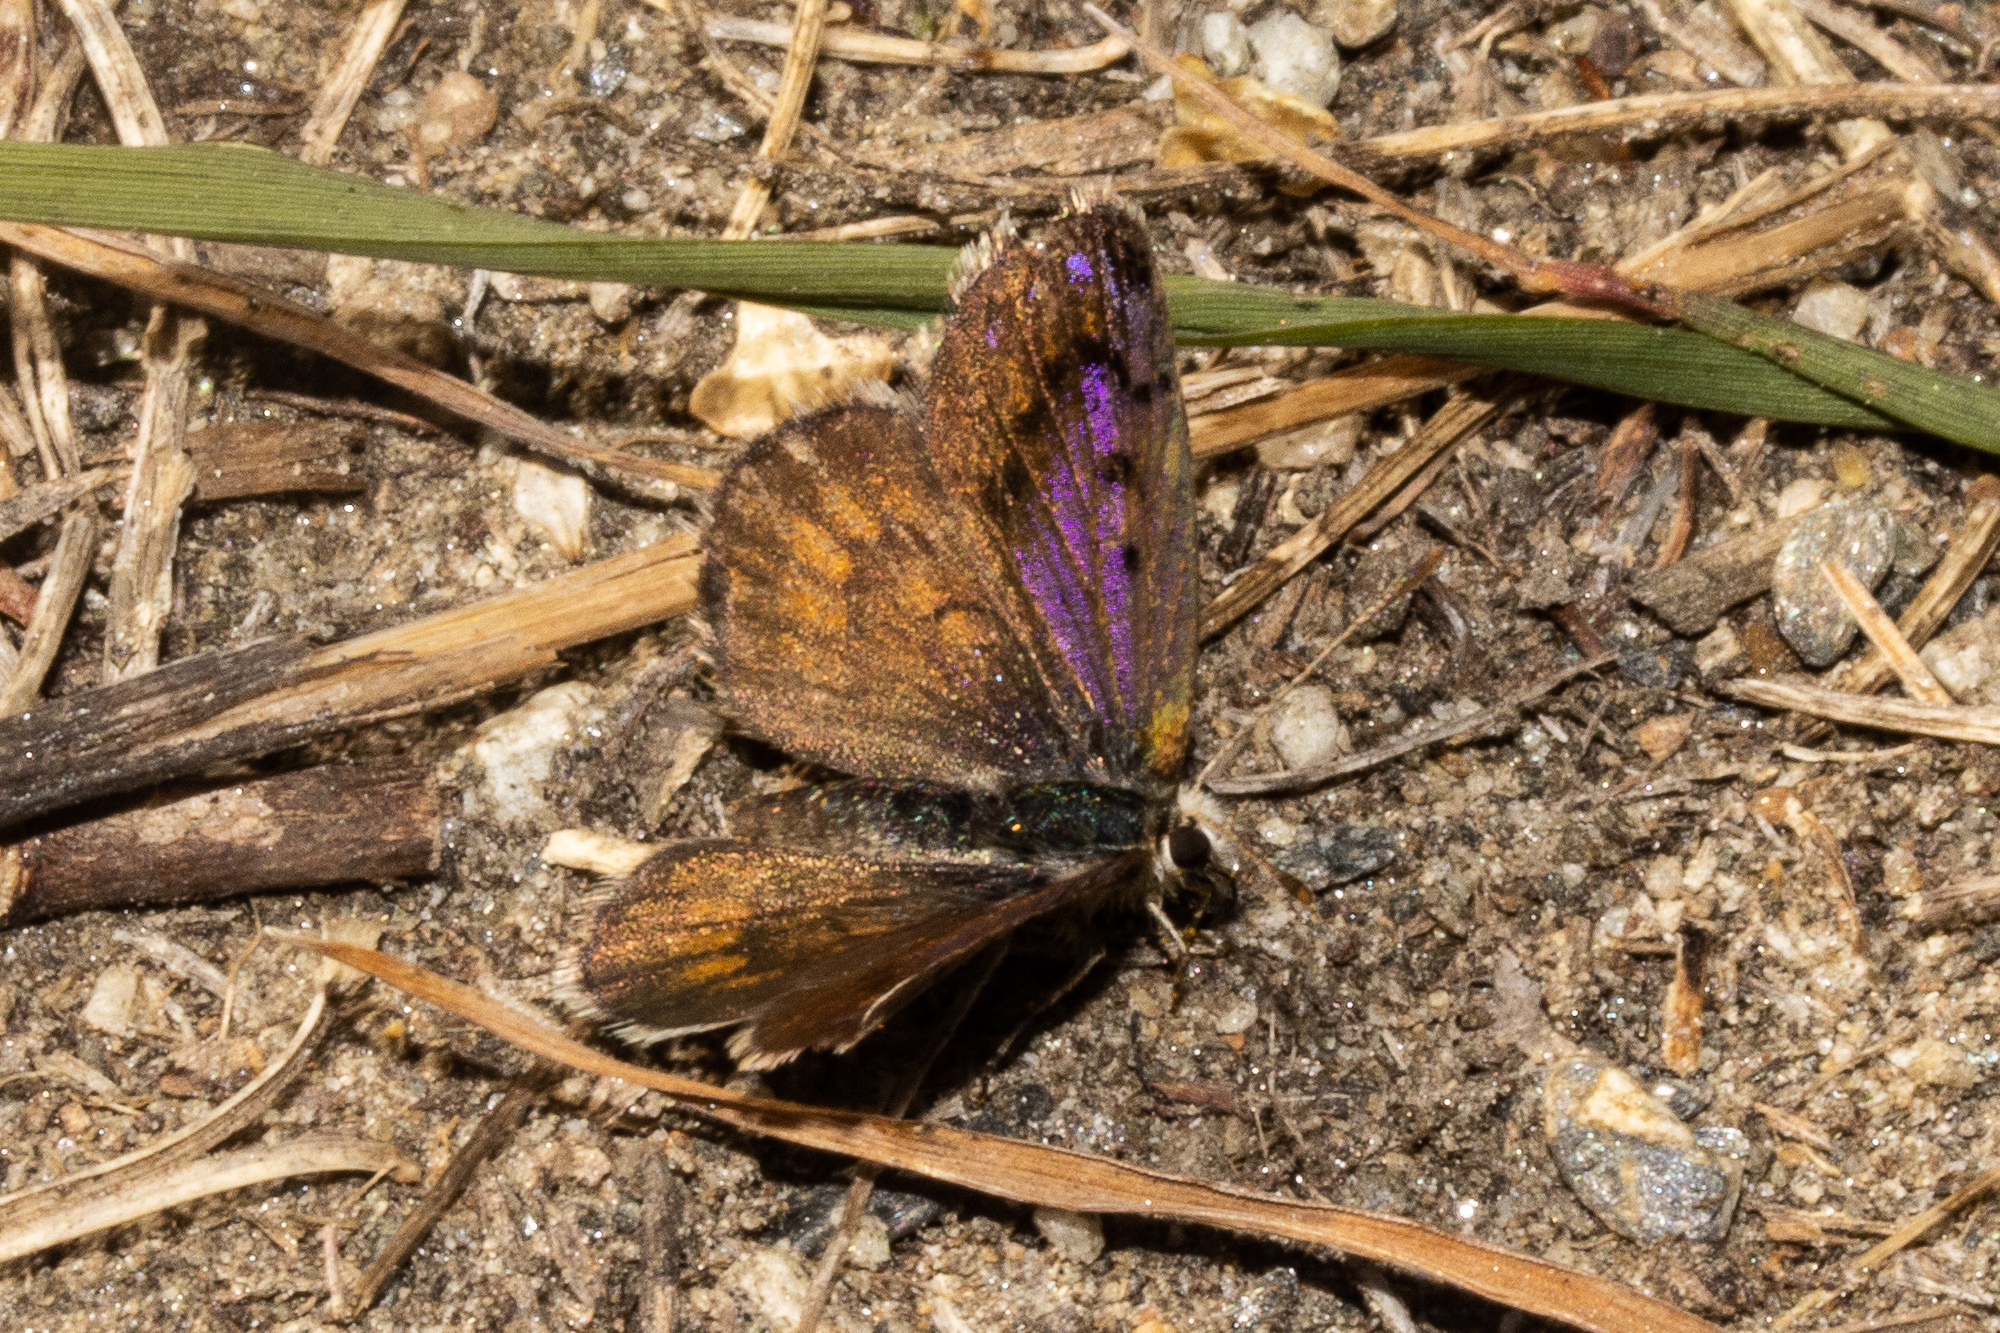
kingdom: Animalia
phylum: Arthropoda
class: Insecta
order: Lepidoptera
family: Lycaenidae
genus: Lycaena
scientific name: Lycaena boldenarum
